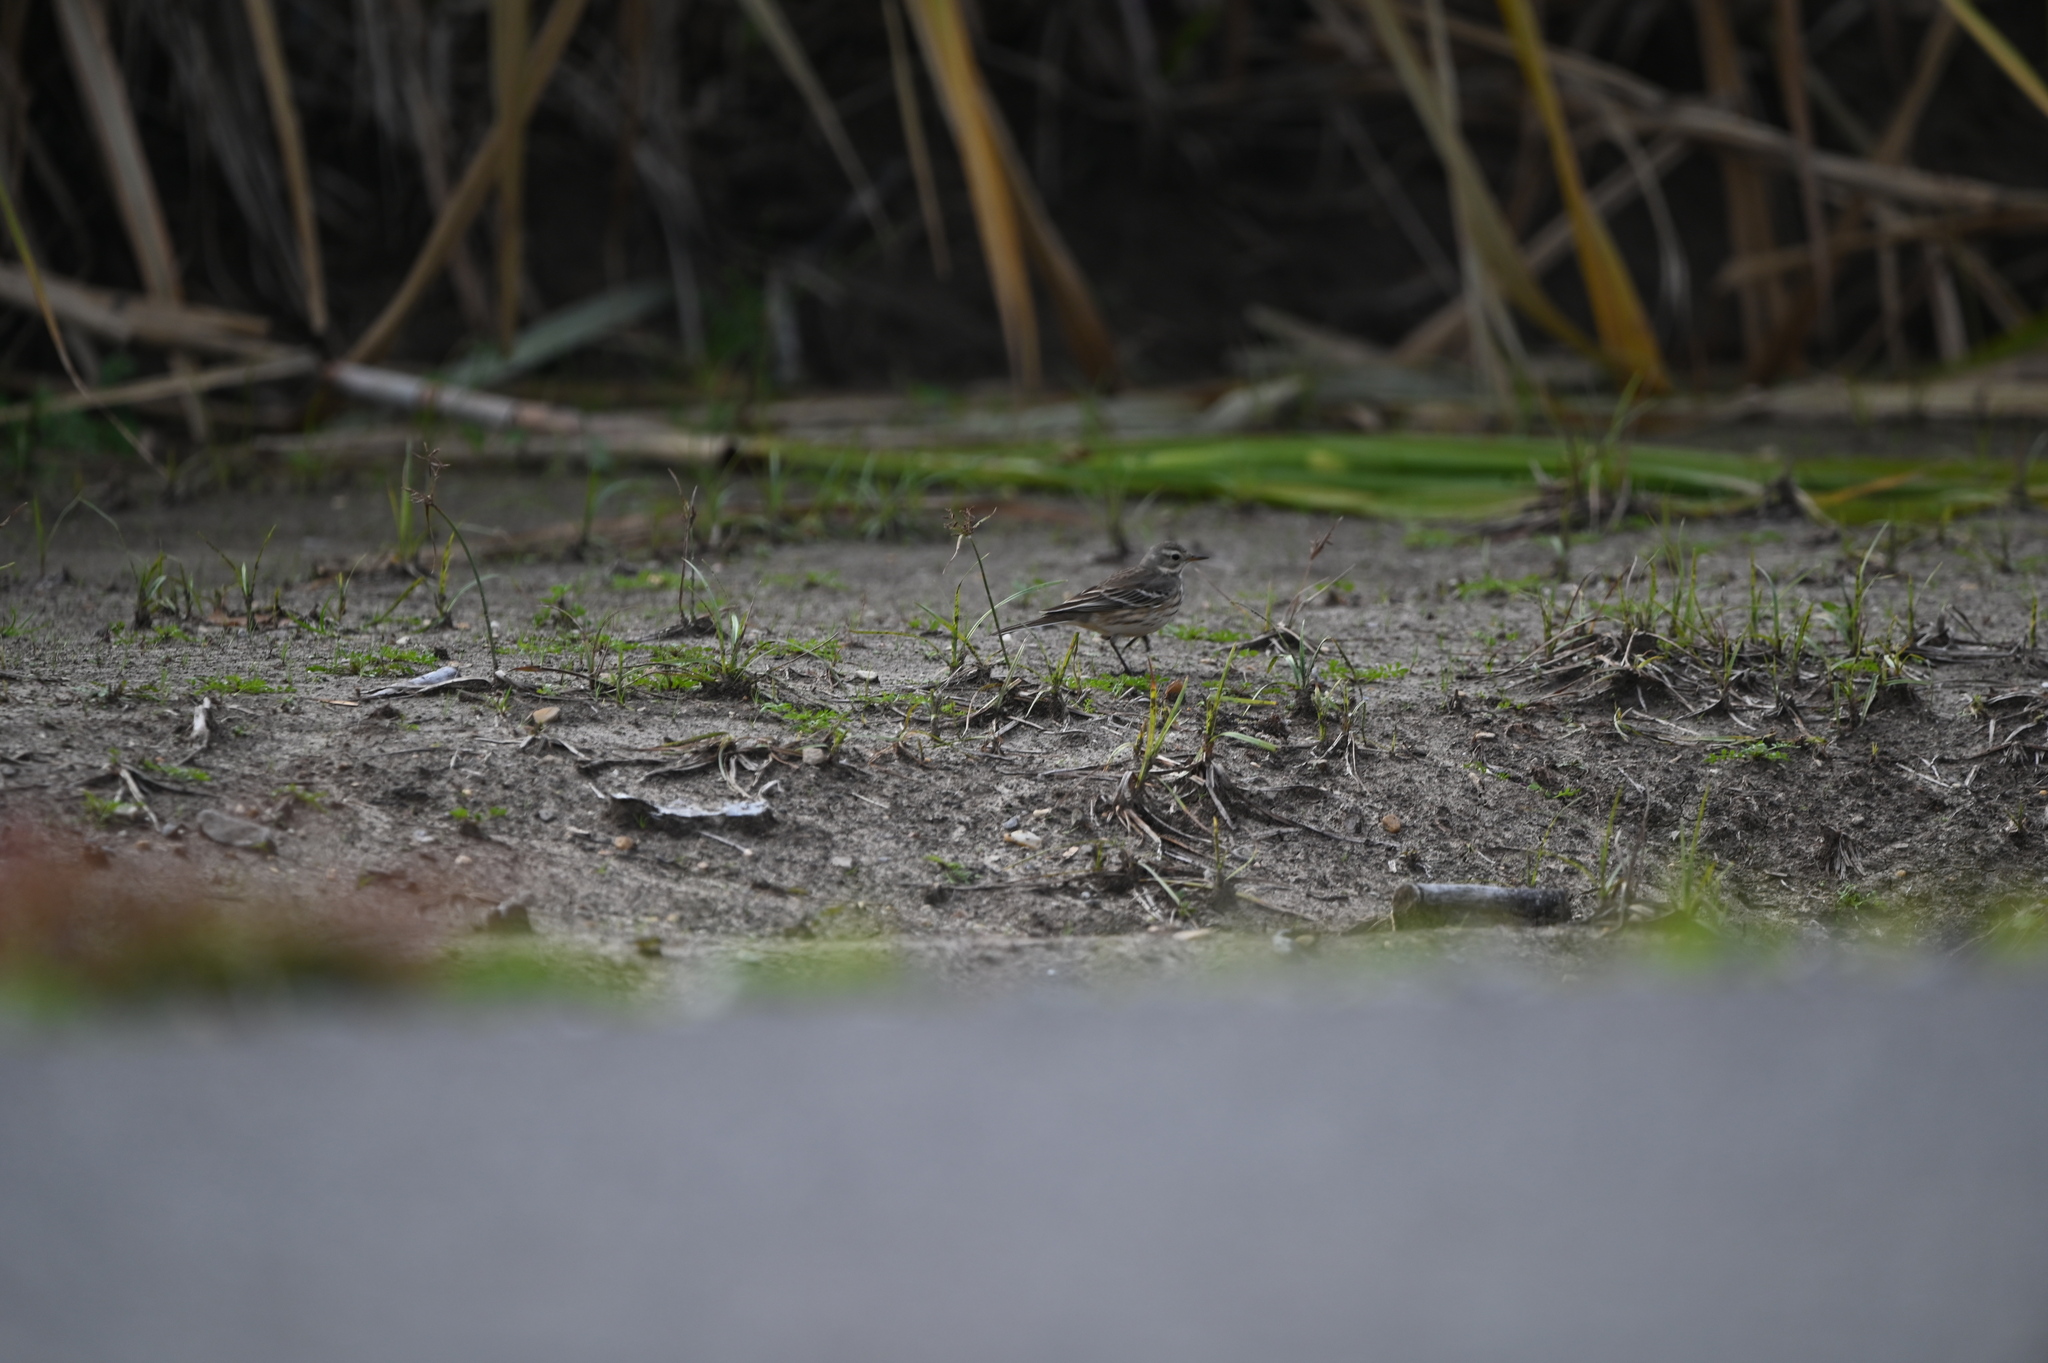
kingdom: Animalia
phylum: Chordata
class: Aves
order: Passeriformes
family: Motacillidae
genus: Anthus
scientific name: Anthus rubescens
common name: Buff-bellied pipit
